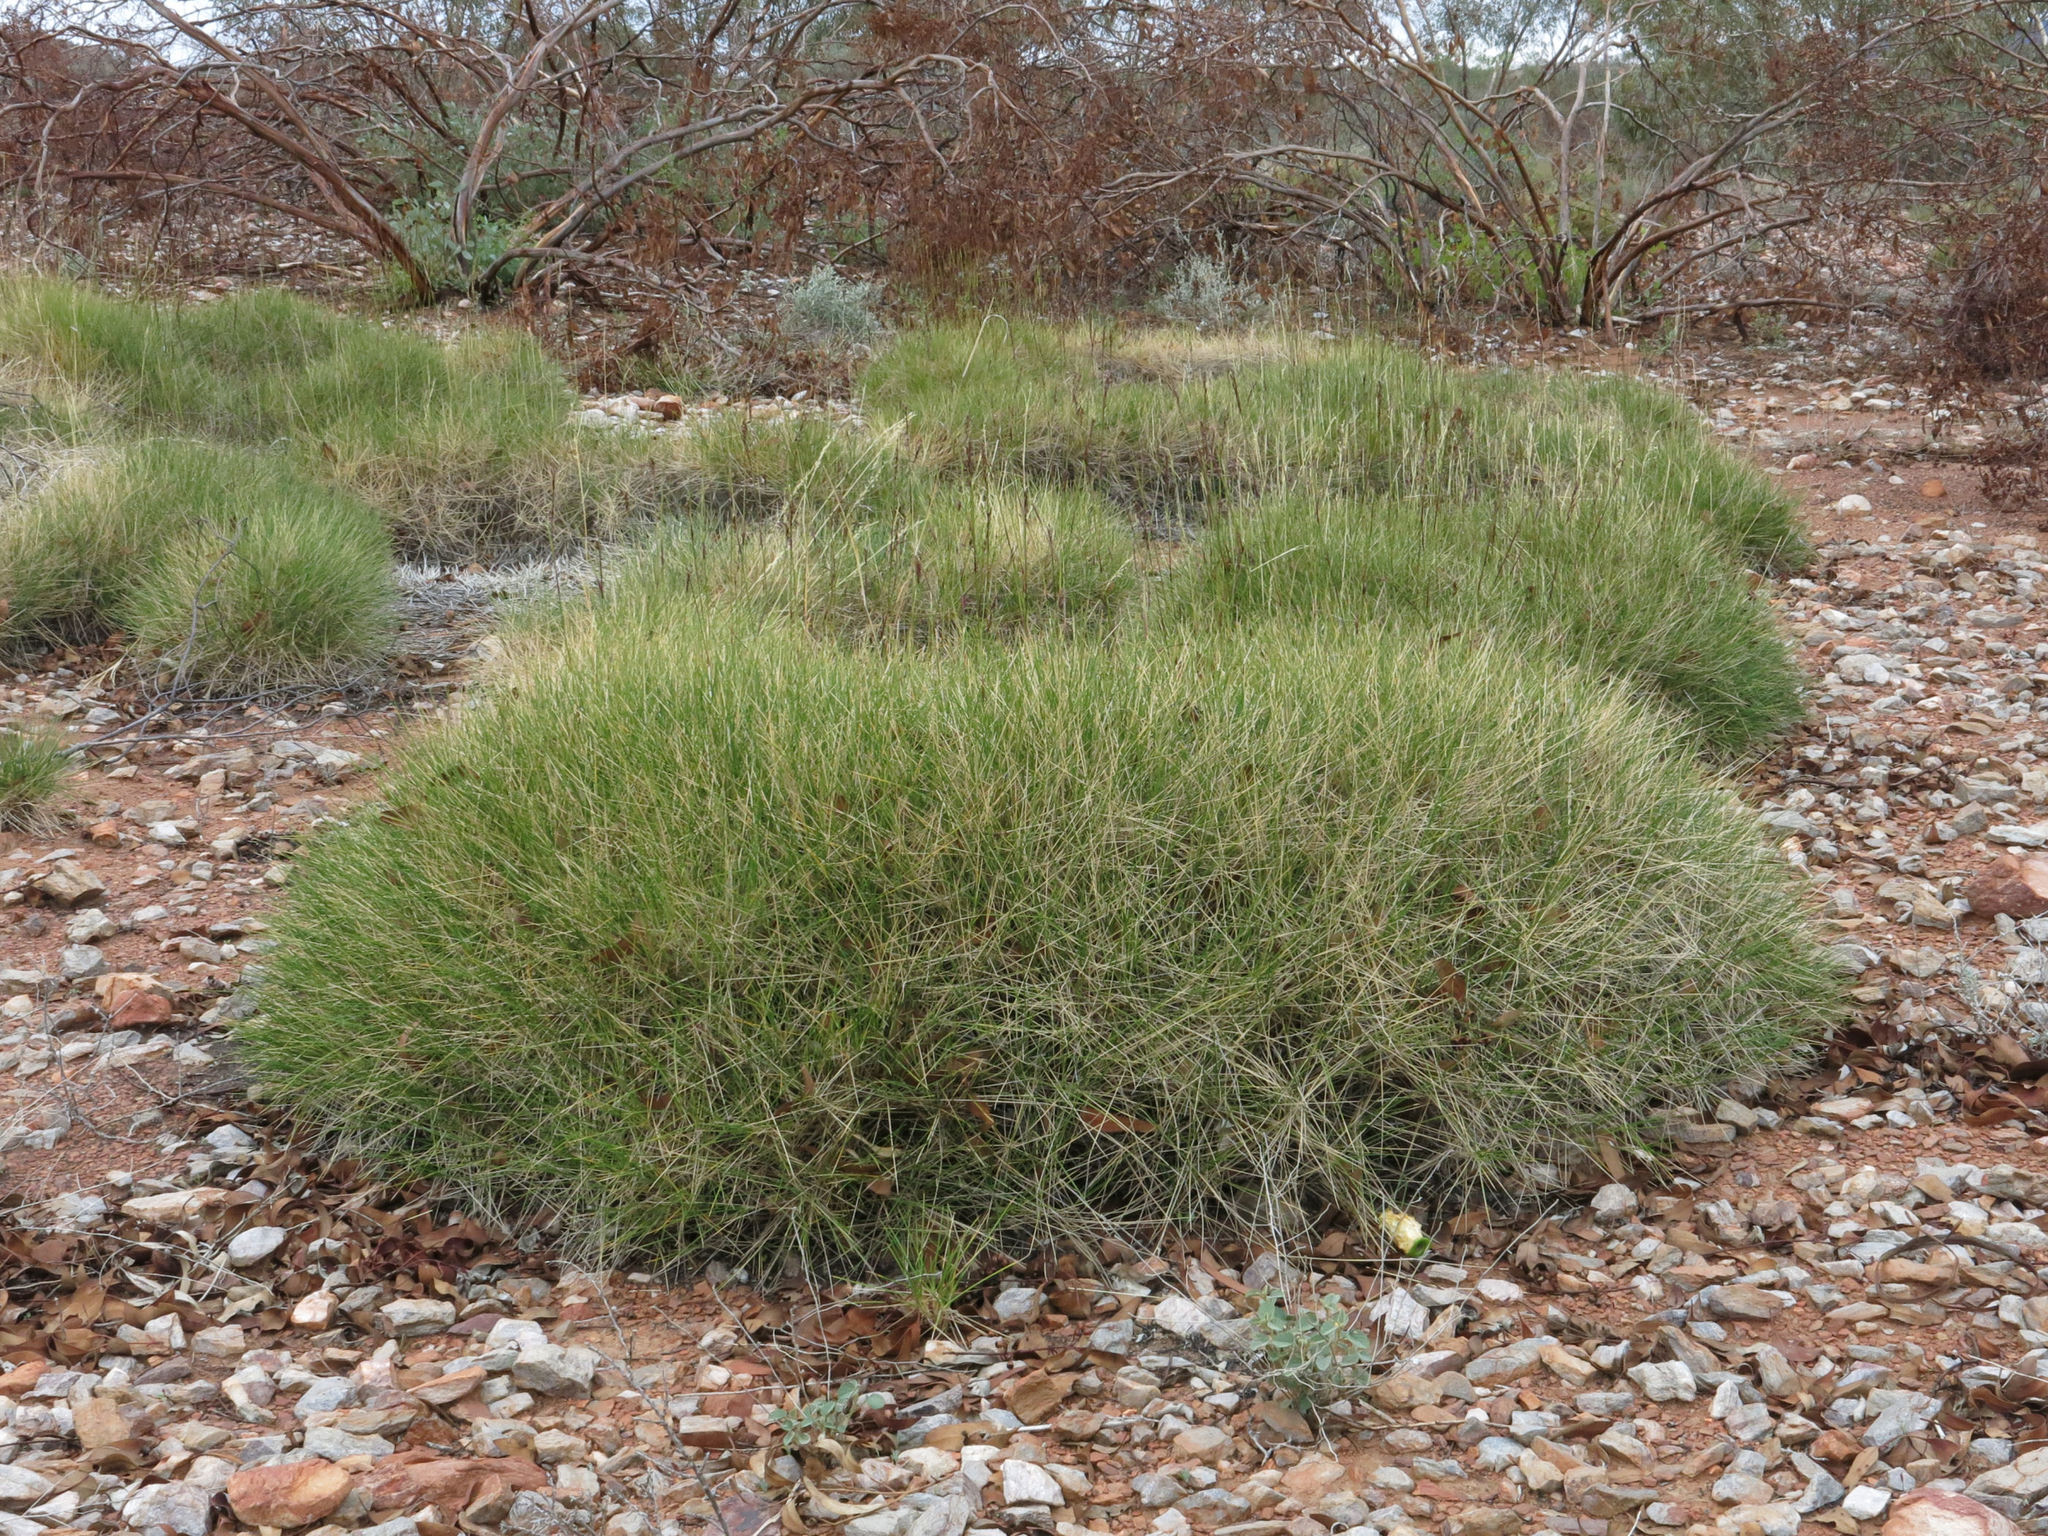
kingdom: Plantae
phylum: Tracheophyta
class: Liliopsida
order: Poales
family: Poaceae
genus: Triodia
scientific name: Triodia brizoides
